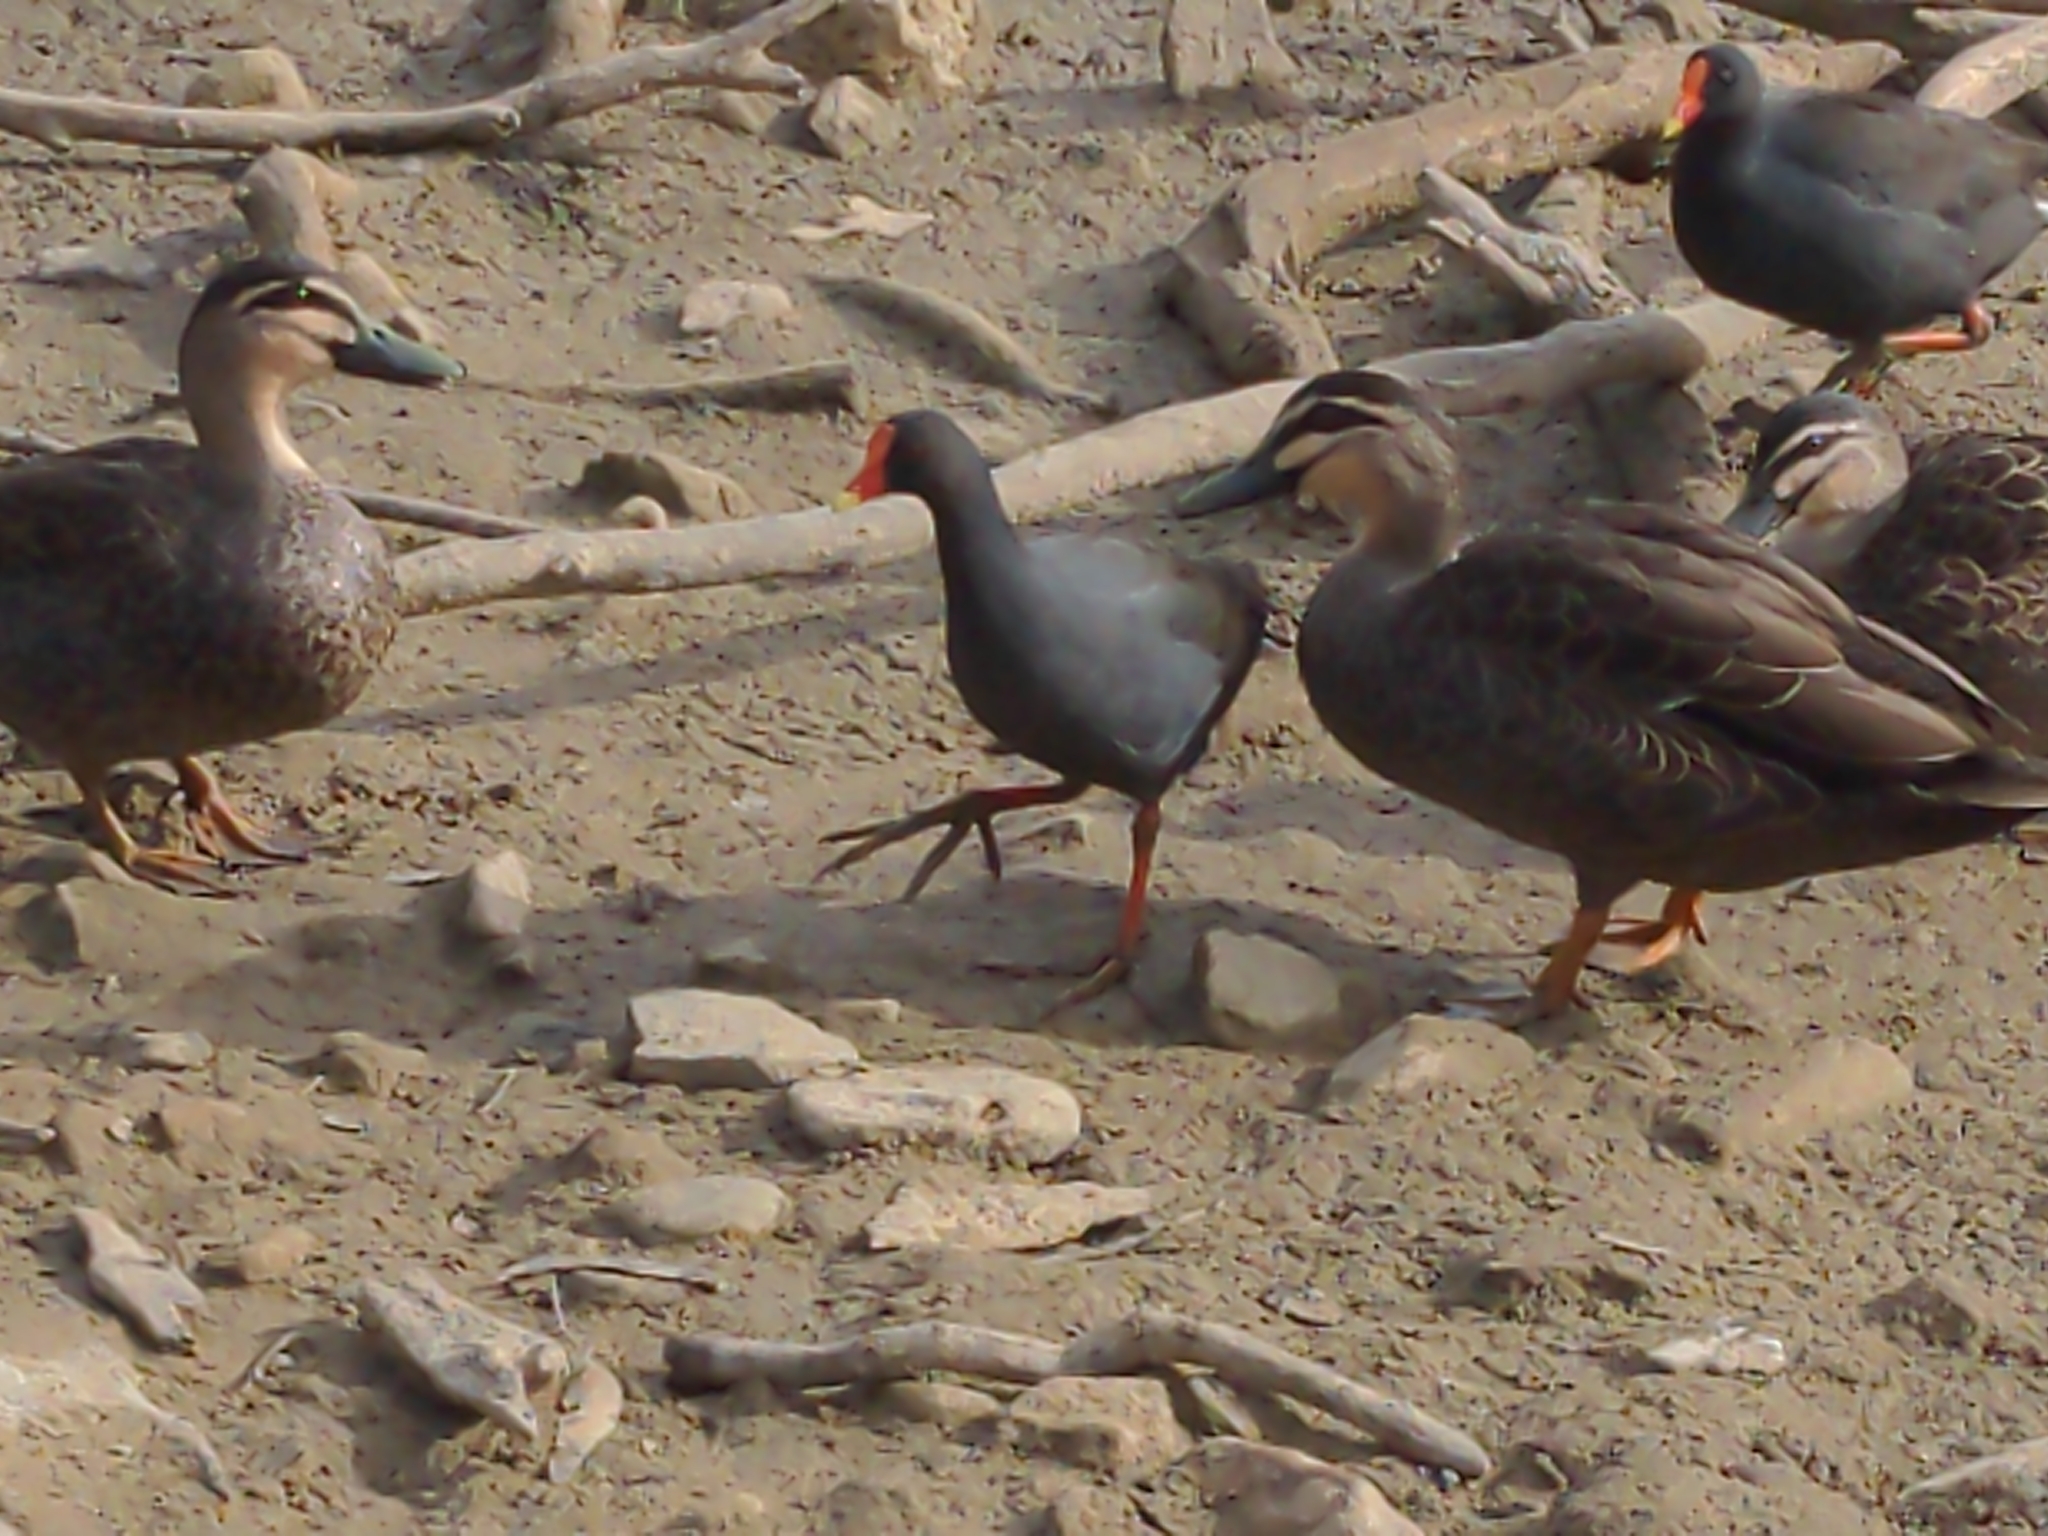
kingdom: Animalia
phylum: Chordata
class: Aves
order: Gruiformes
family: Rallidae
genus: Gallinula
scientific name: Gallinula tenebrosa
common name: Dusky moorhen
